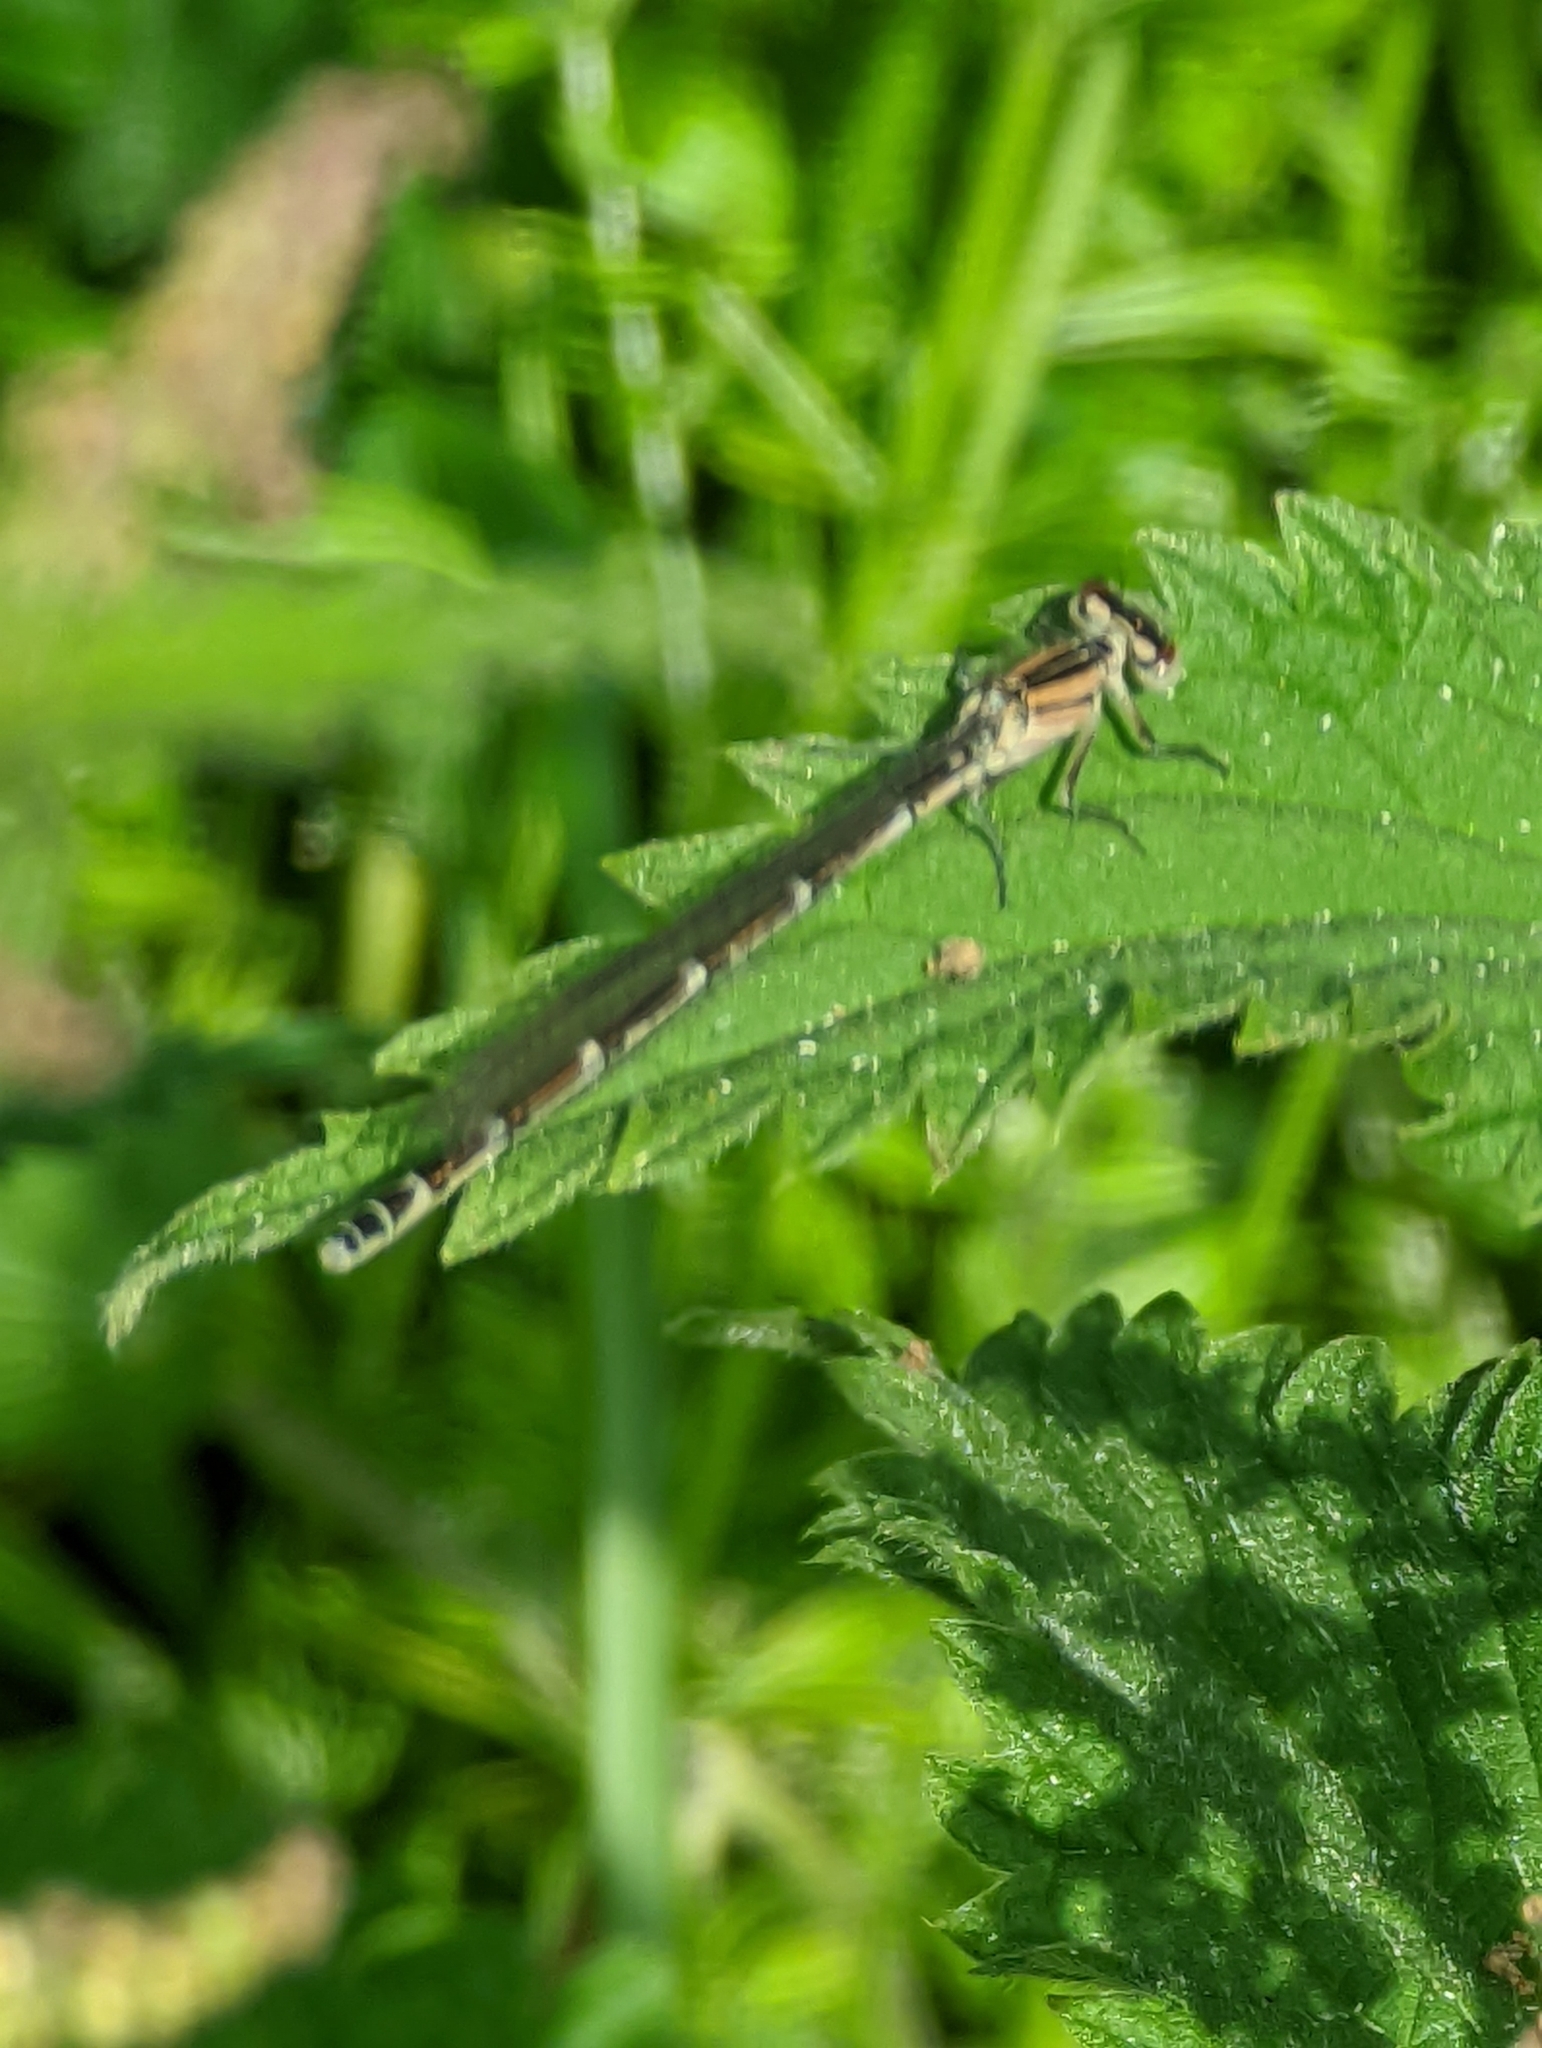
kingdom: Animalia
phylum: Arthropoda
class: Insecta
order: Odonata
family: Coenagrionidae
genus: Enallagma
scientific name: Enallagma cyathigerum
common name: Common blue damselfly
